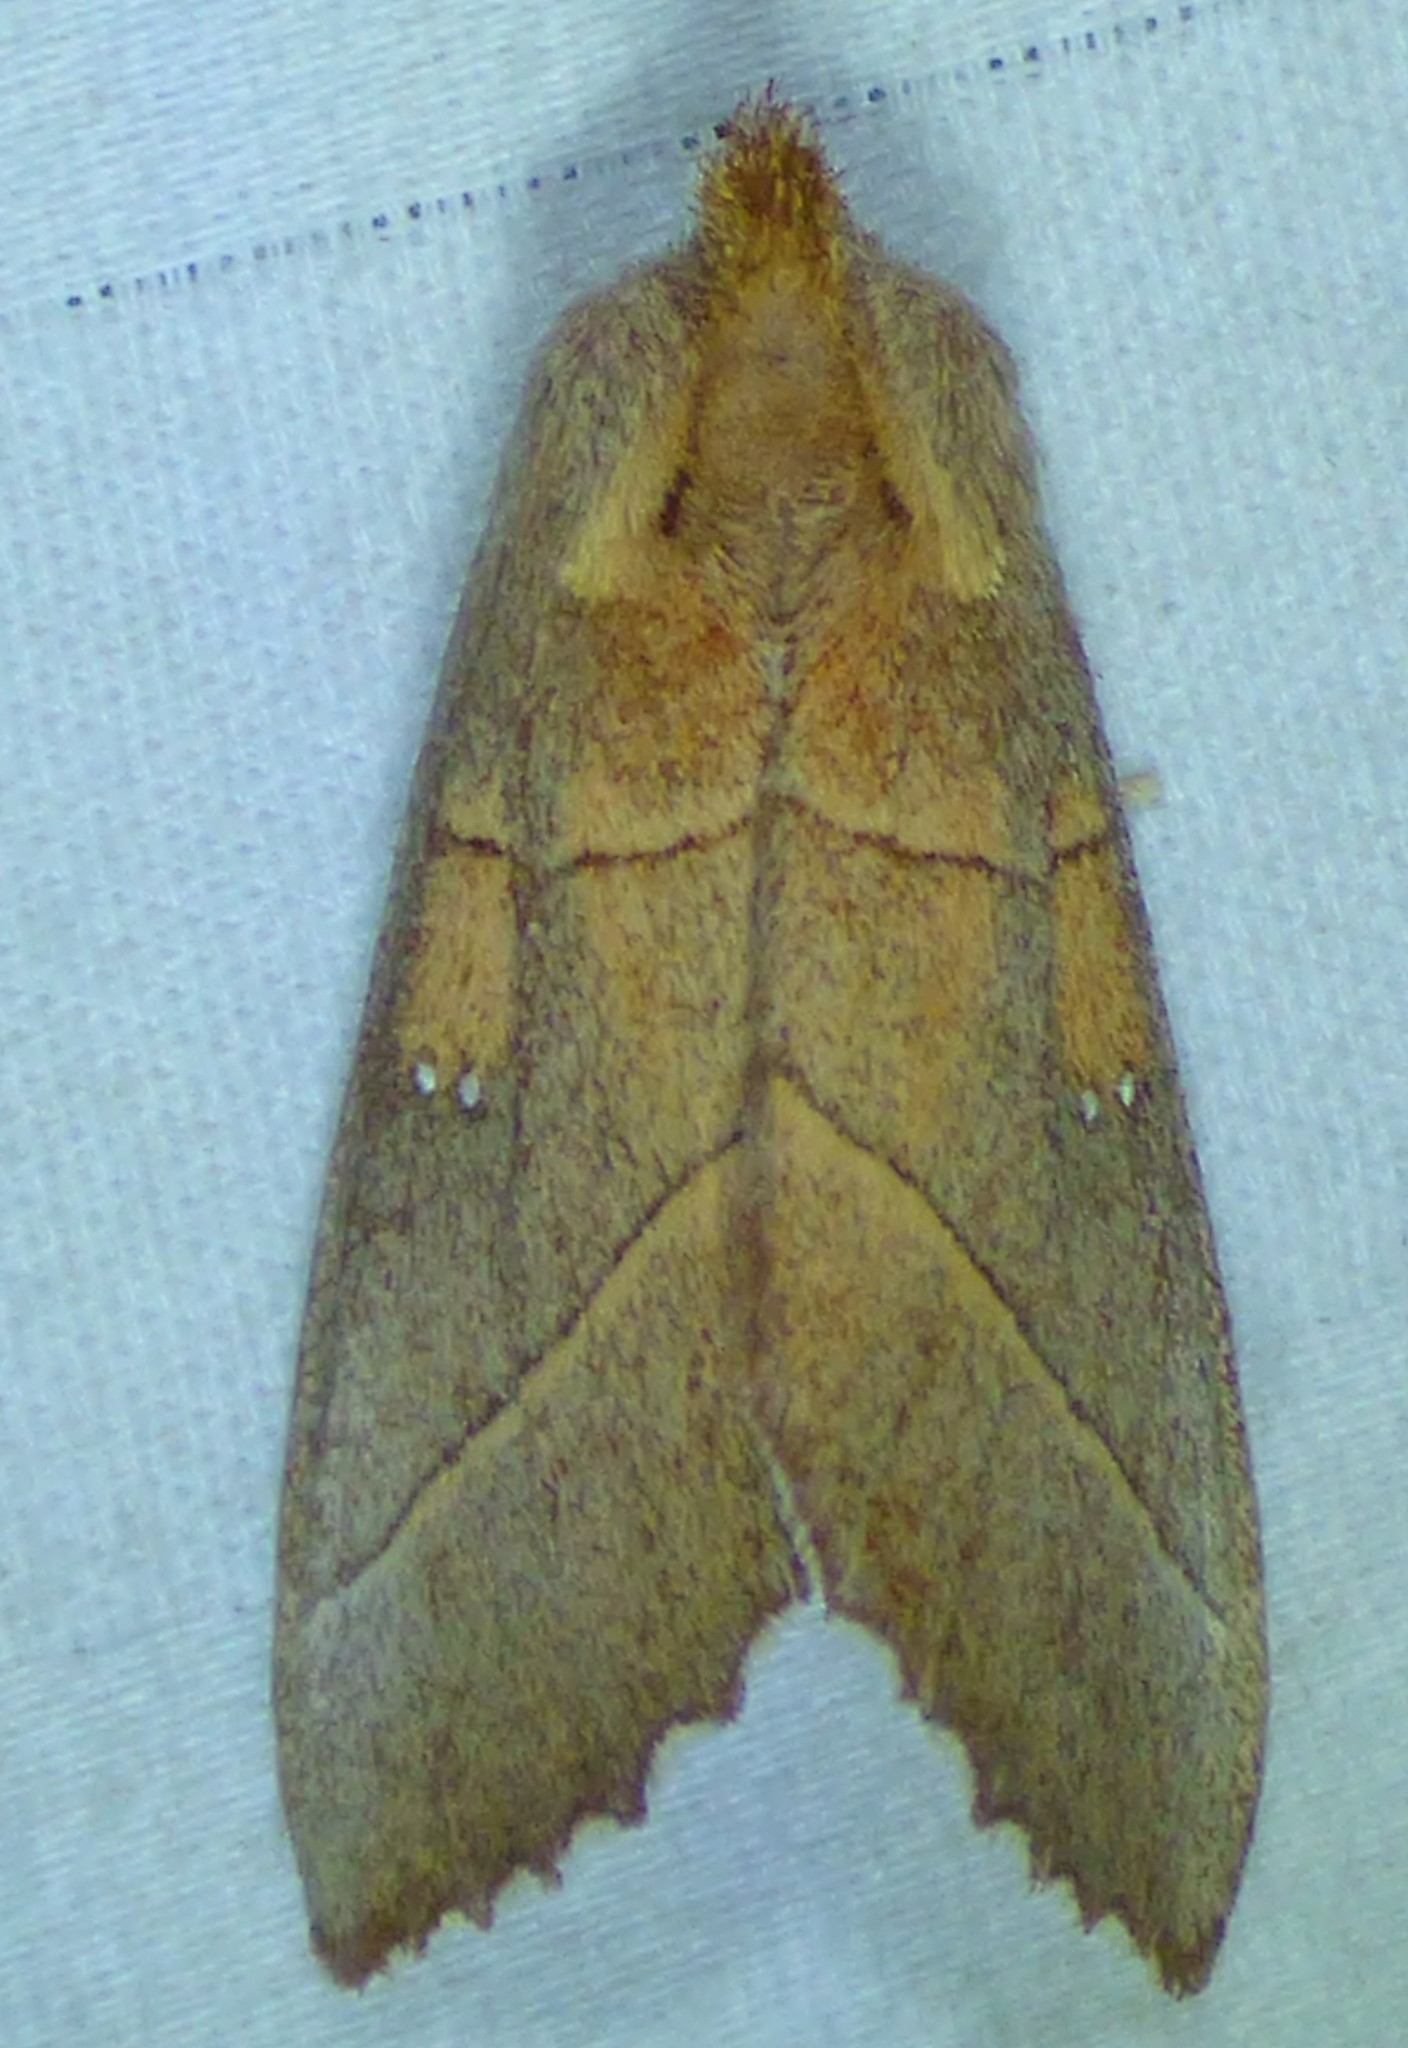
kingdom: Animalia
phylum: Arthropoda
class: Insecta
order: Lepidoptera
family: Notodontidae
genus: Nadata
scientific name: Nadata gibbosa
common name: White-dotted prominent
